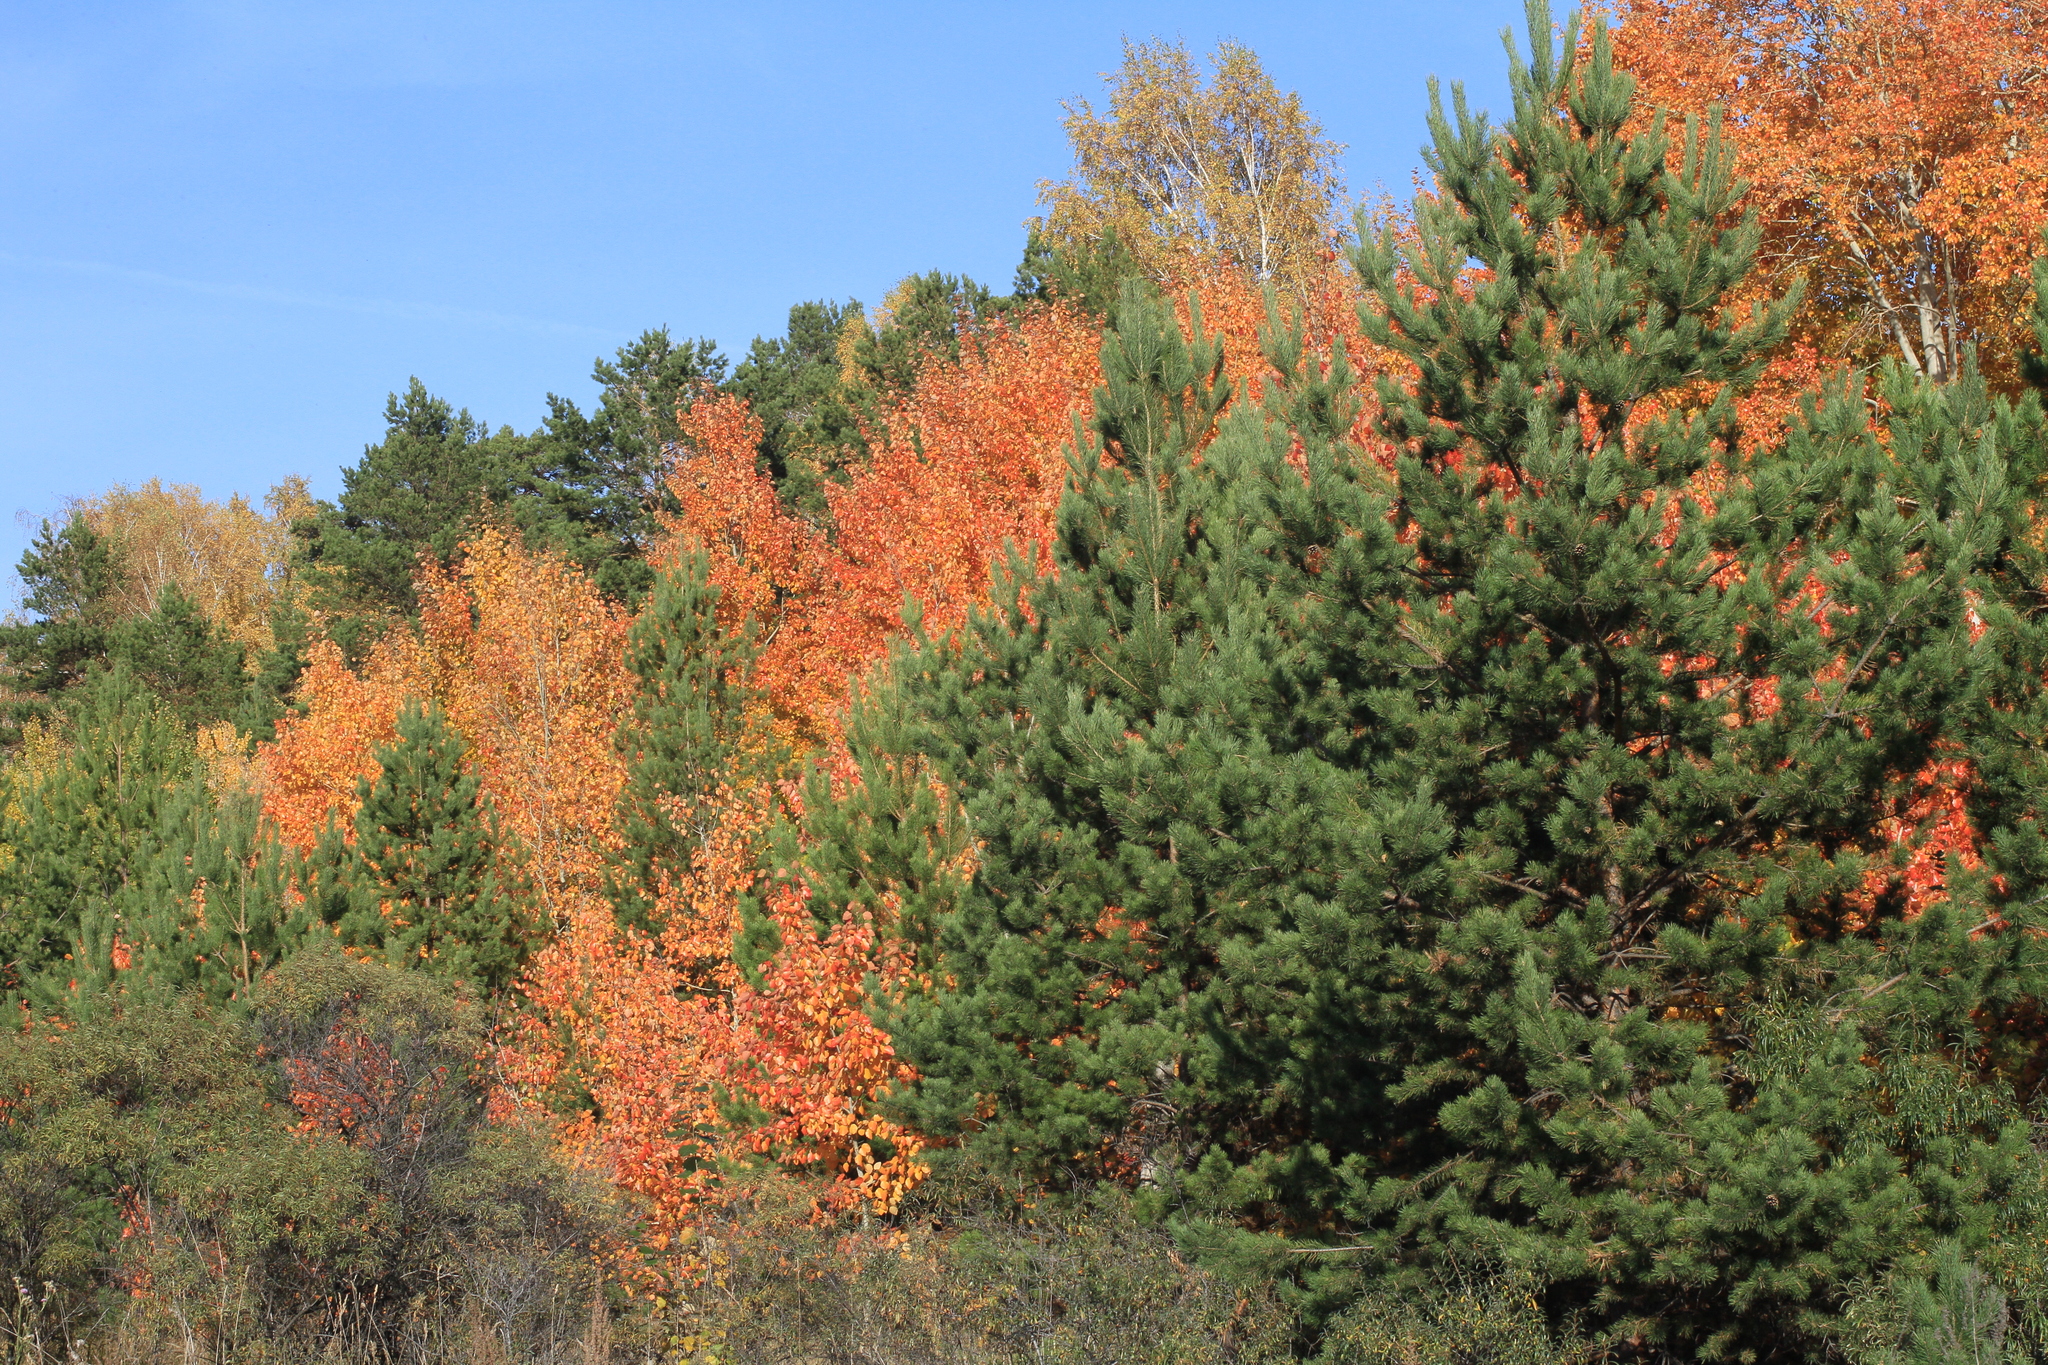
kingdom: Plantae
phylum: Tracheophyta
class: Pinopsida
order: Pinales
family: Pinaceae
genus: Pinus
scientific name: Pinus sylvestris
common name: Scots pine
